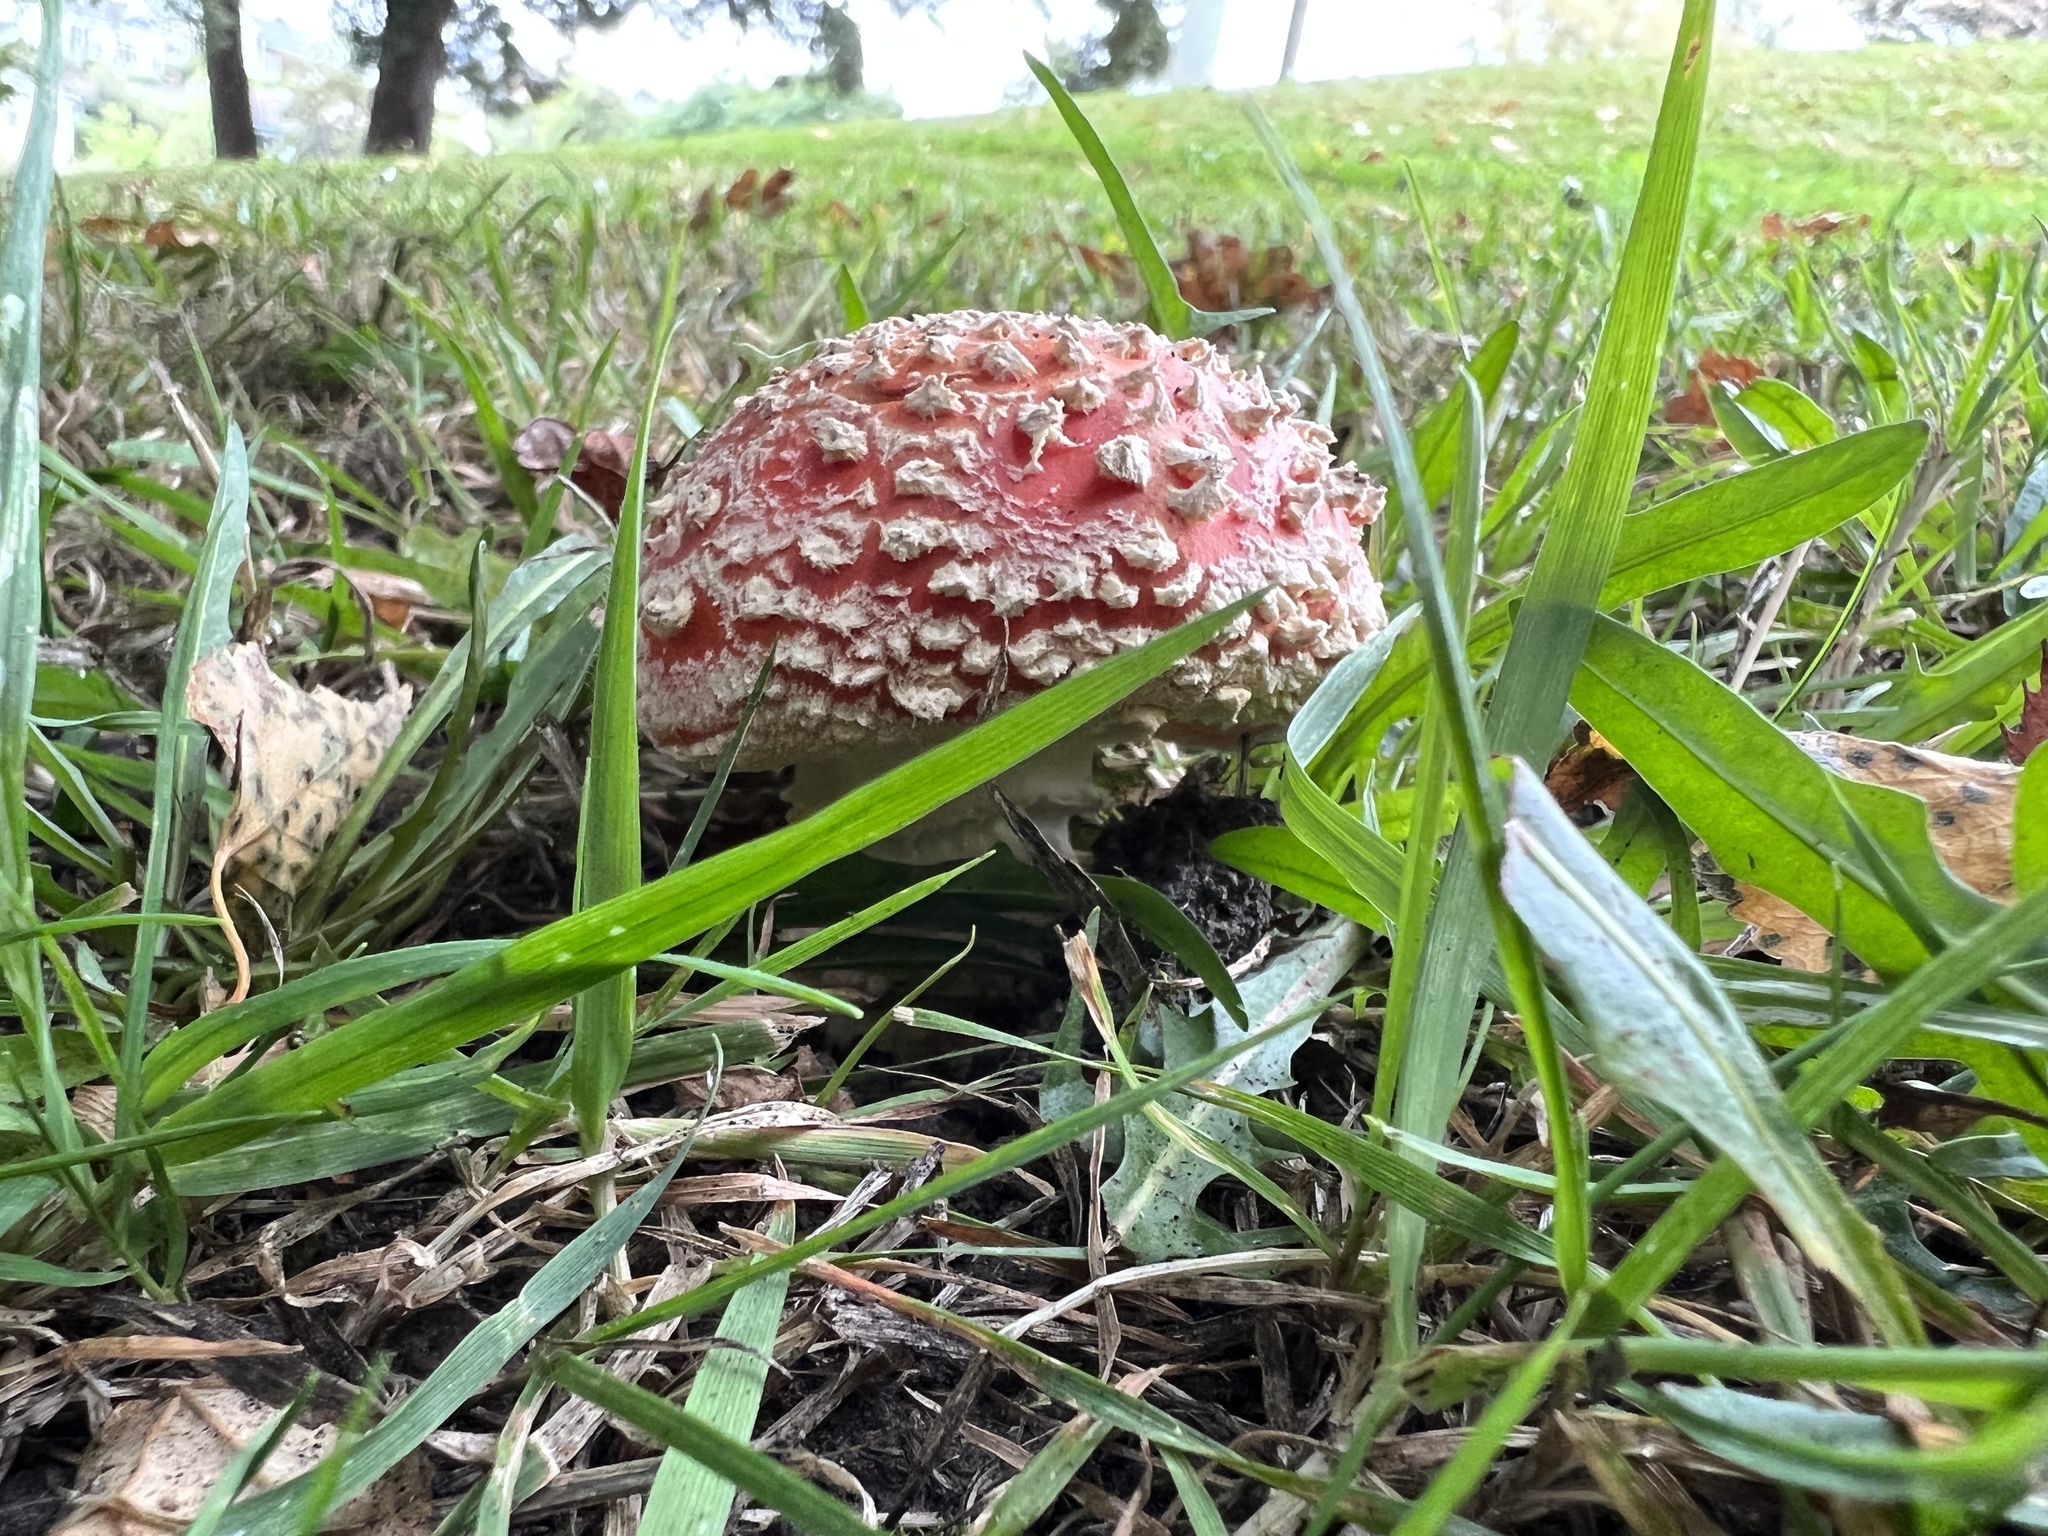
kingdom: Fungi
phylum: Basidiomycota
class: Agaricomycetes
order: Agaricales
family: Amanitaceae
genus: Amanita
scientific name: Amanita muscaria
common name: Fly agaric
